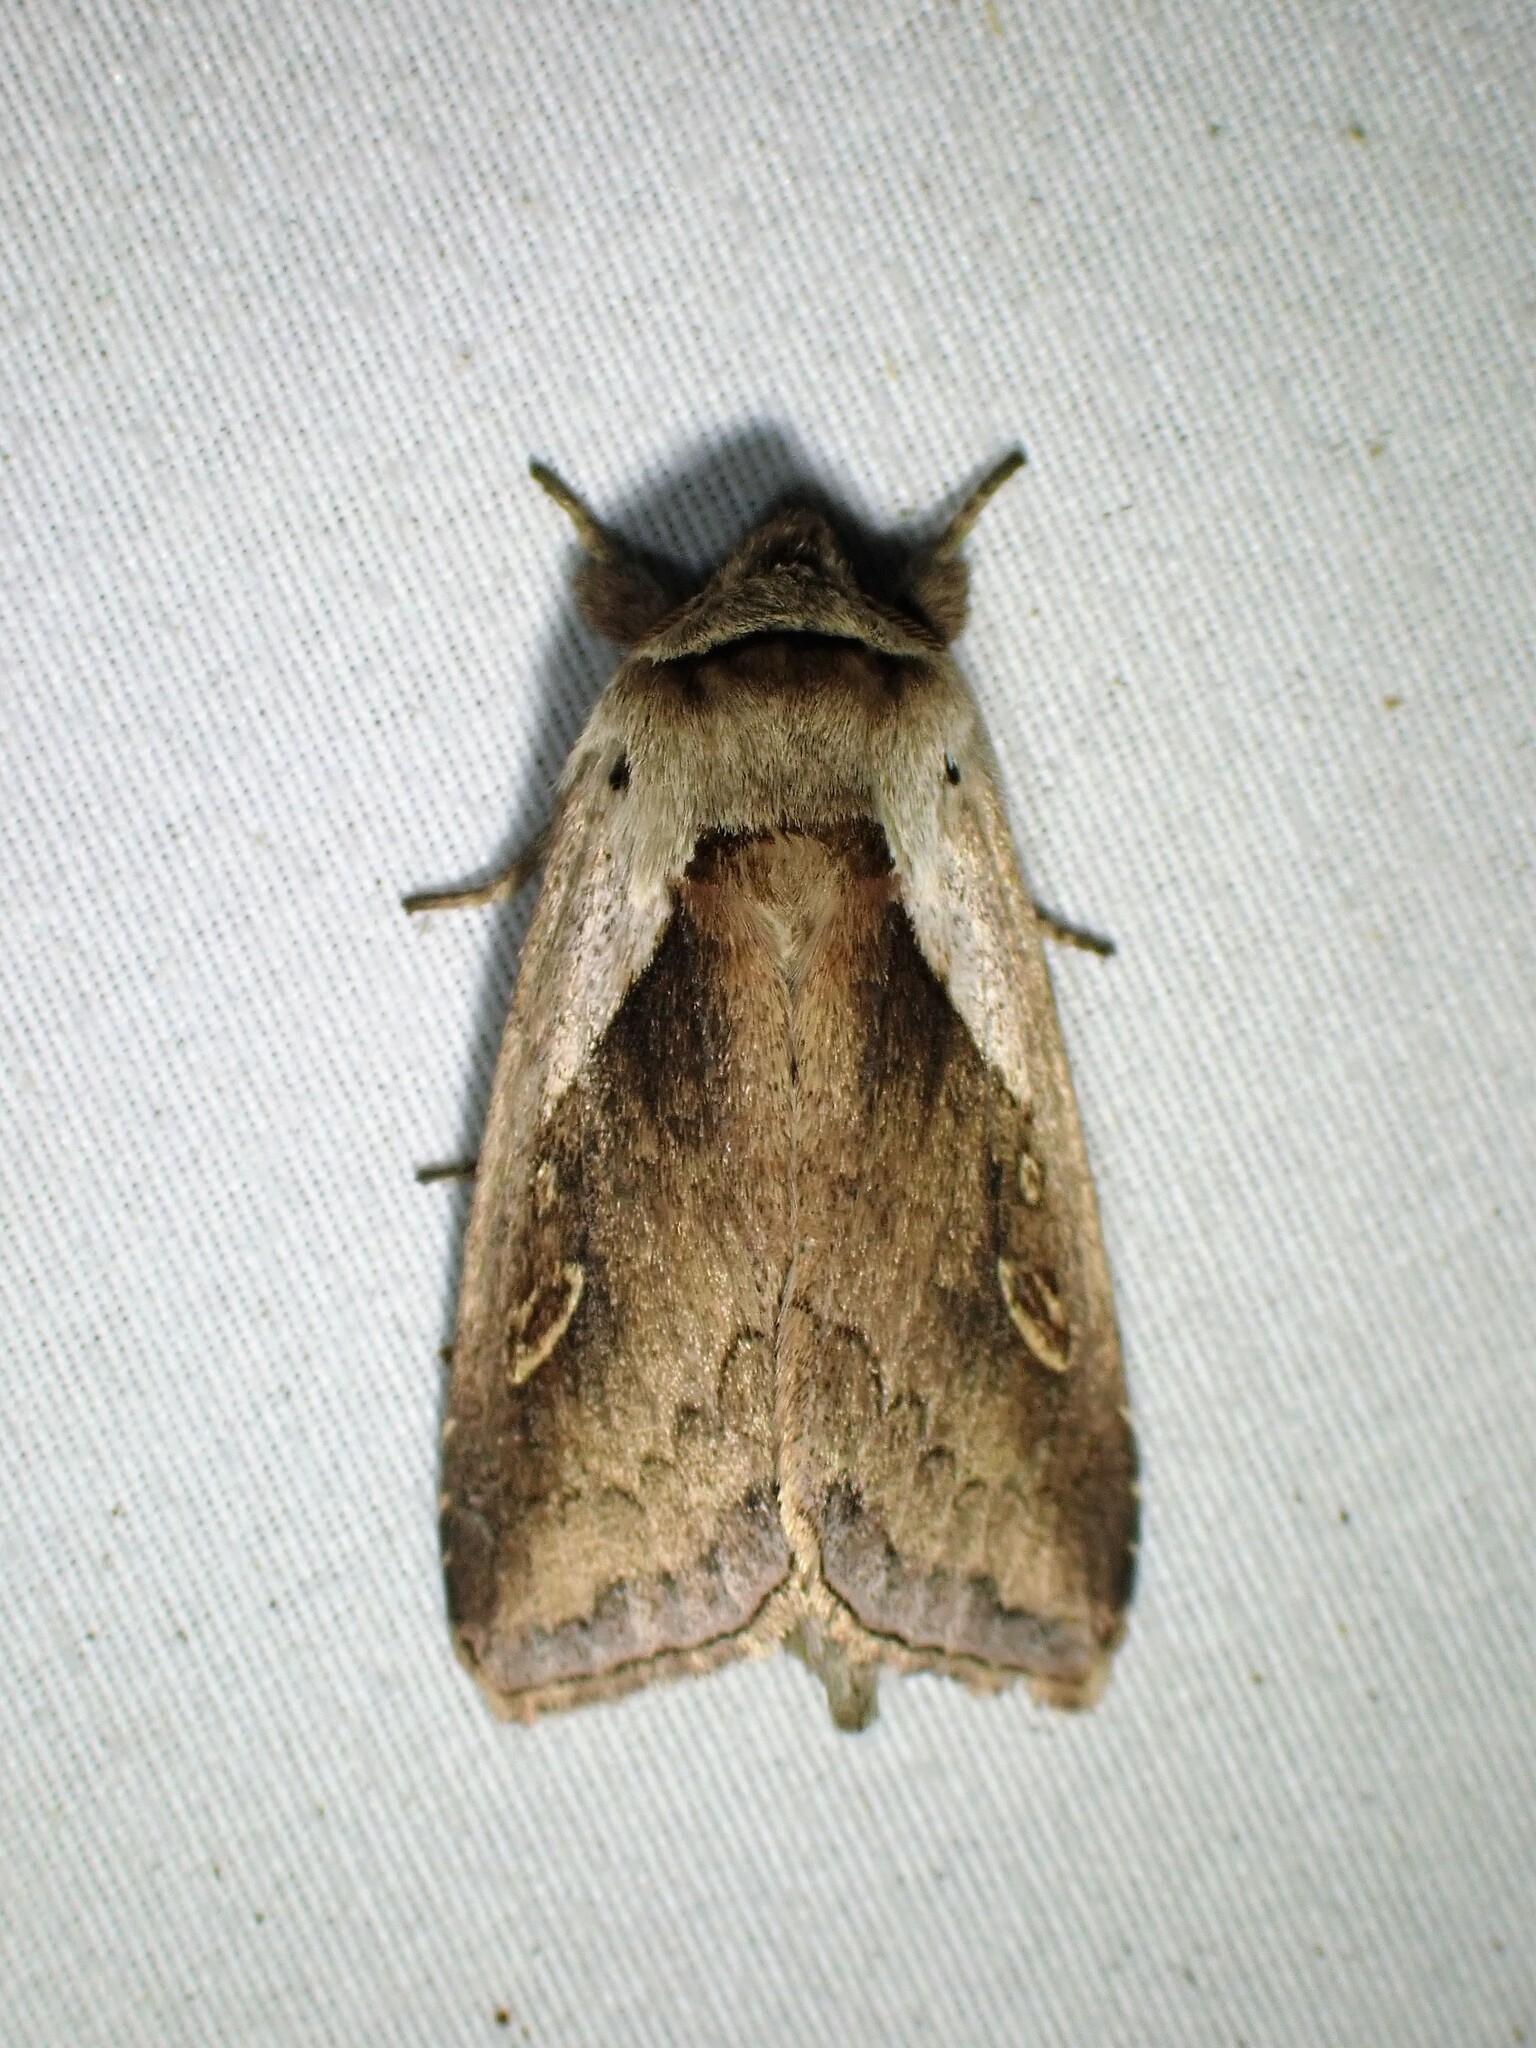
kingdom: Animalia
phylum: Arthropoda
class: Insecta
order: Lepidoptera
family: Noctuidae
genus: Bellura
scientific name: Bellura obliqua
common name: Cattail borer moth
